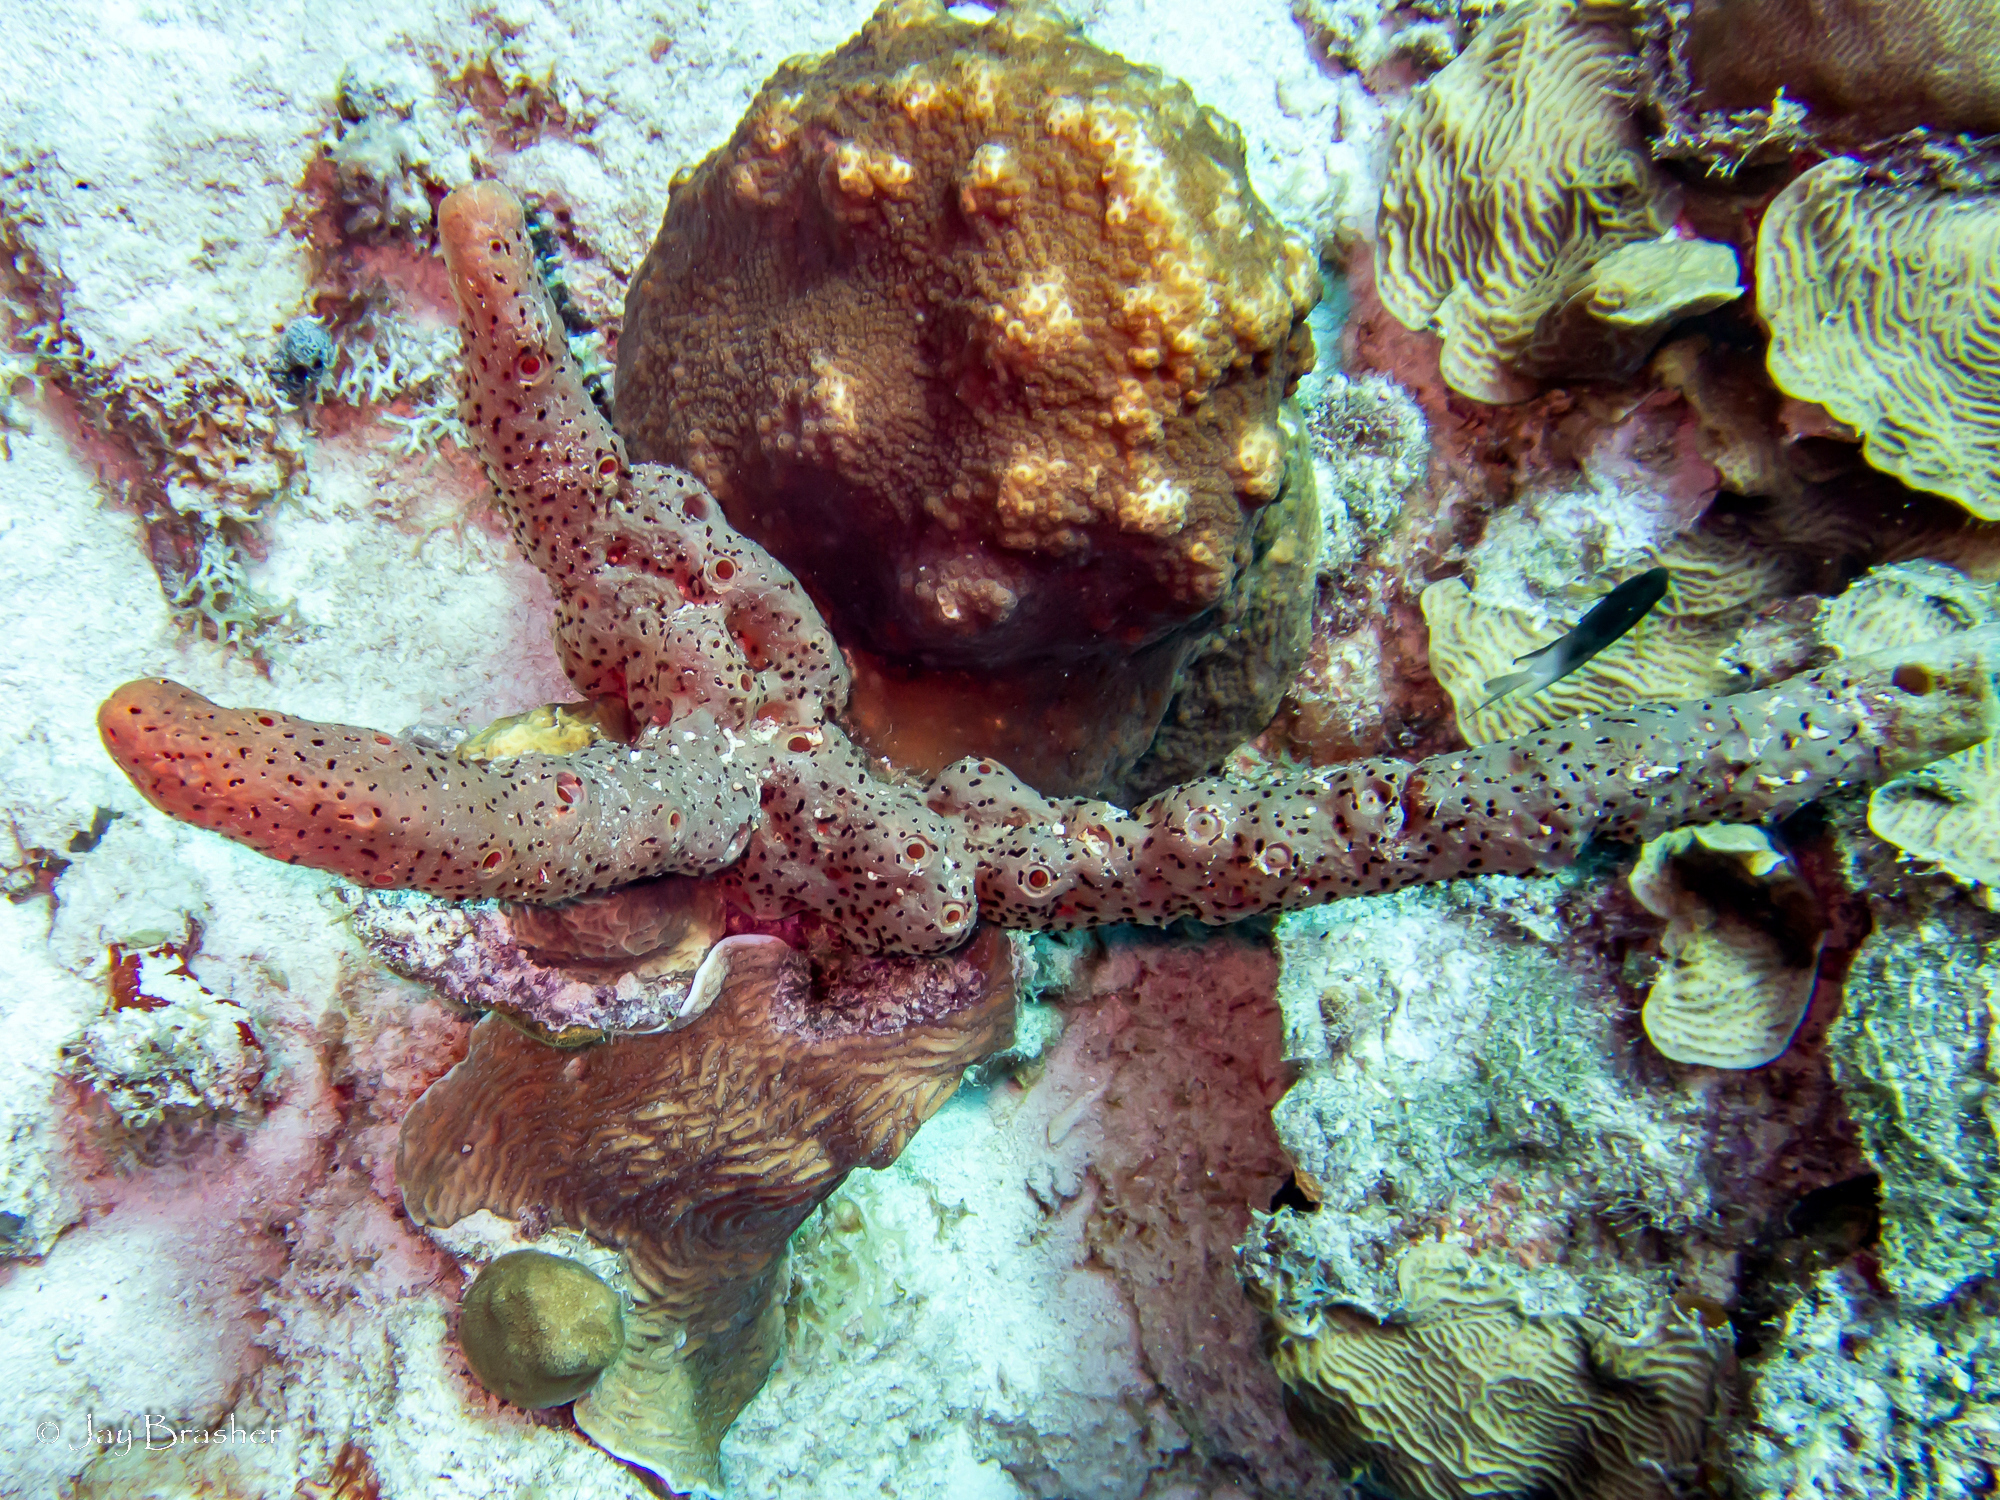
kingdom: Animalia
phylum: Cnidaria
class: Anthozoa
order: Scleractinia
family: Agariciidae
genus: Agaricia
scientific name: Agaricia agaricites
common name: Lettuce coral
